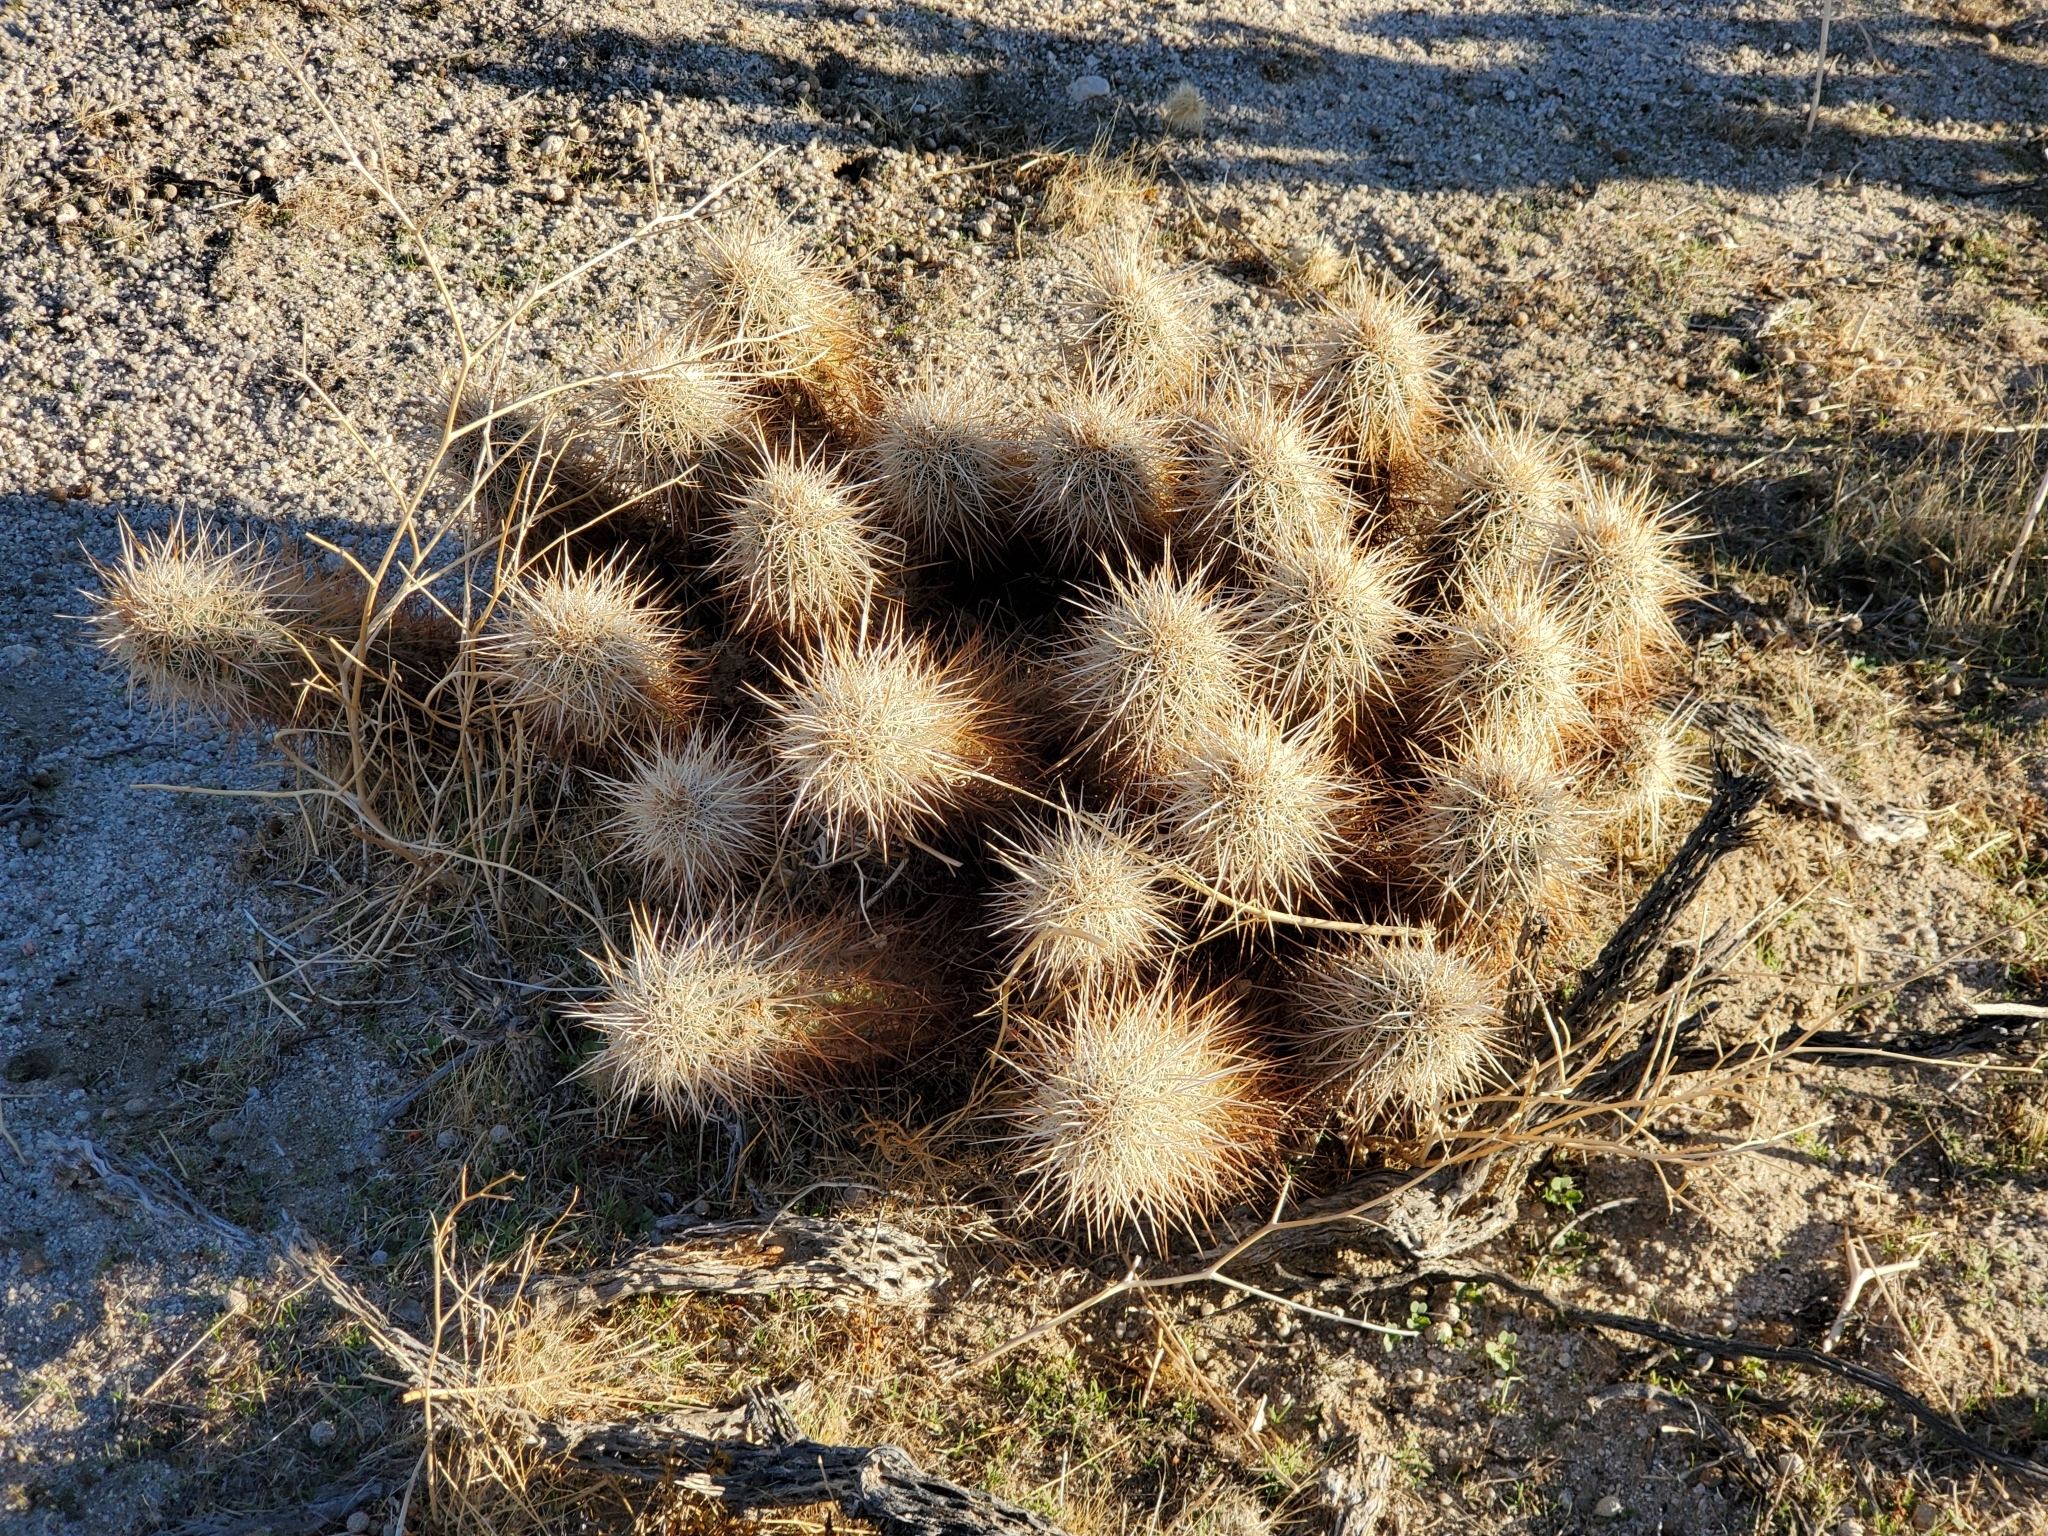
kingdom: Plantae
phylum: Tracheophyta
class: Magnoliopsida
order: Caryophyllales
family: Cactaceae
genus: Echinocereus
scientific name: Echinocereus engelmannii
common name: Engelmann's hedgehog cactus
